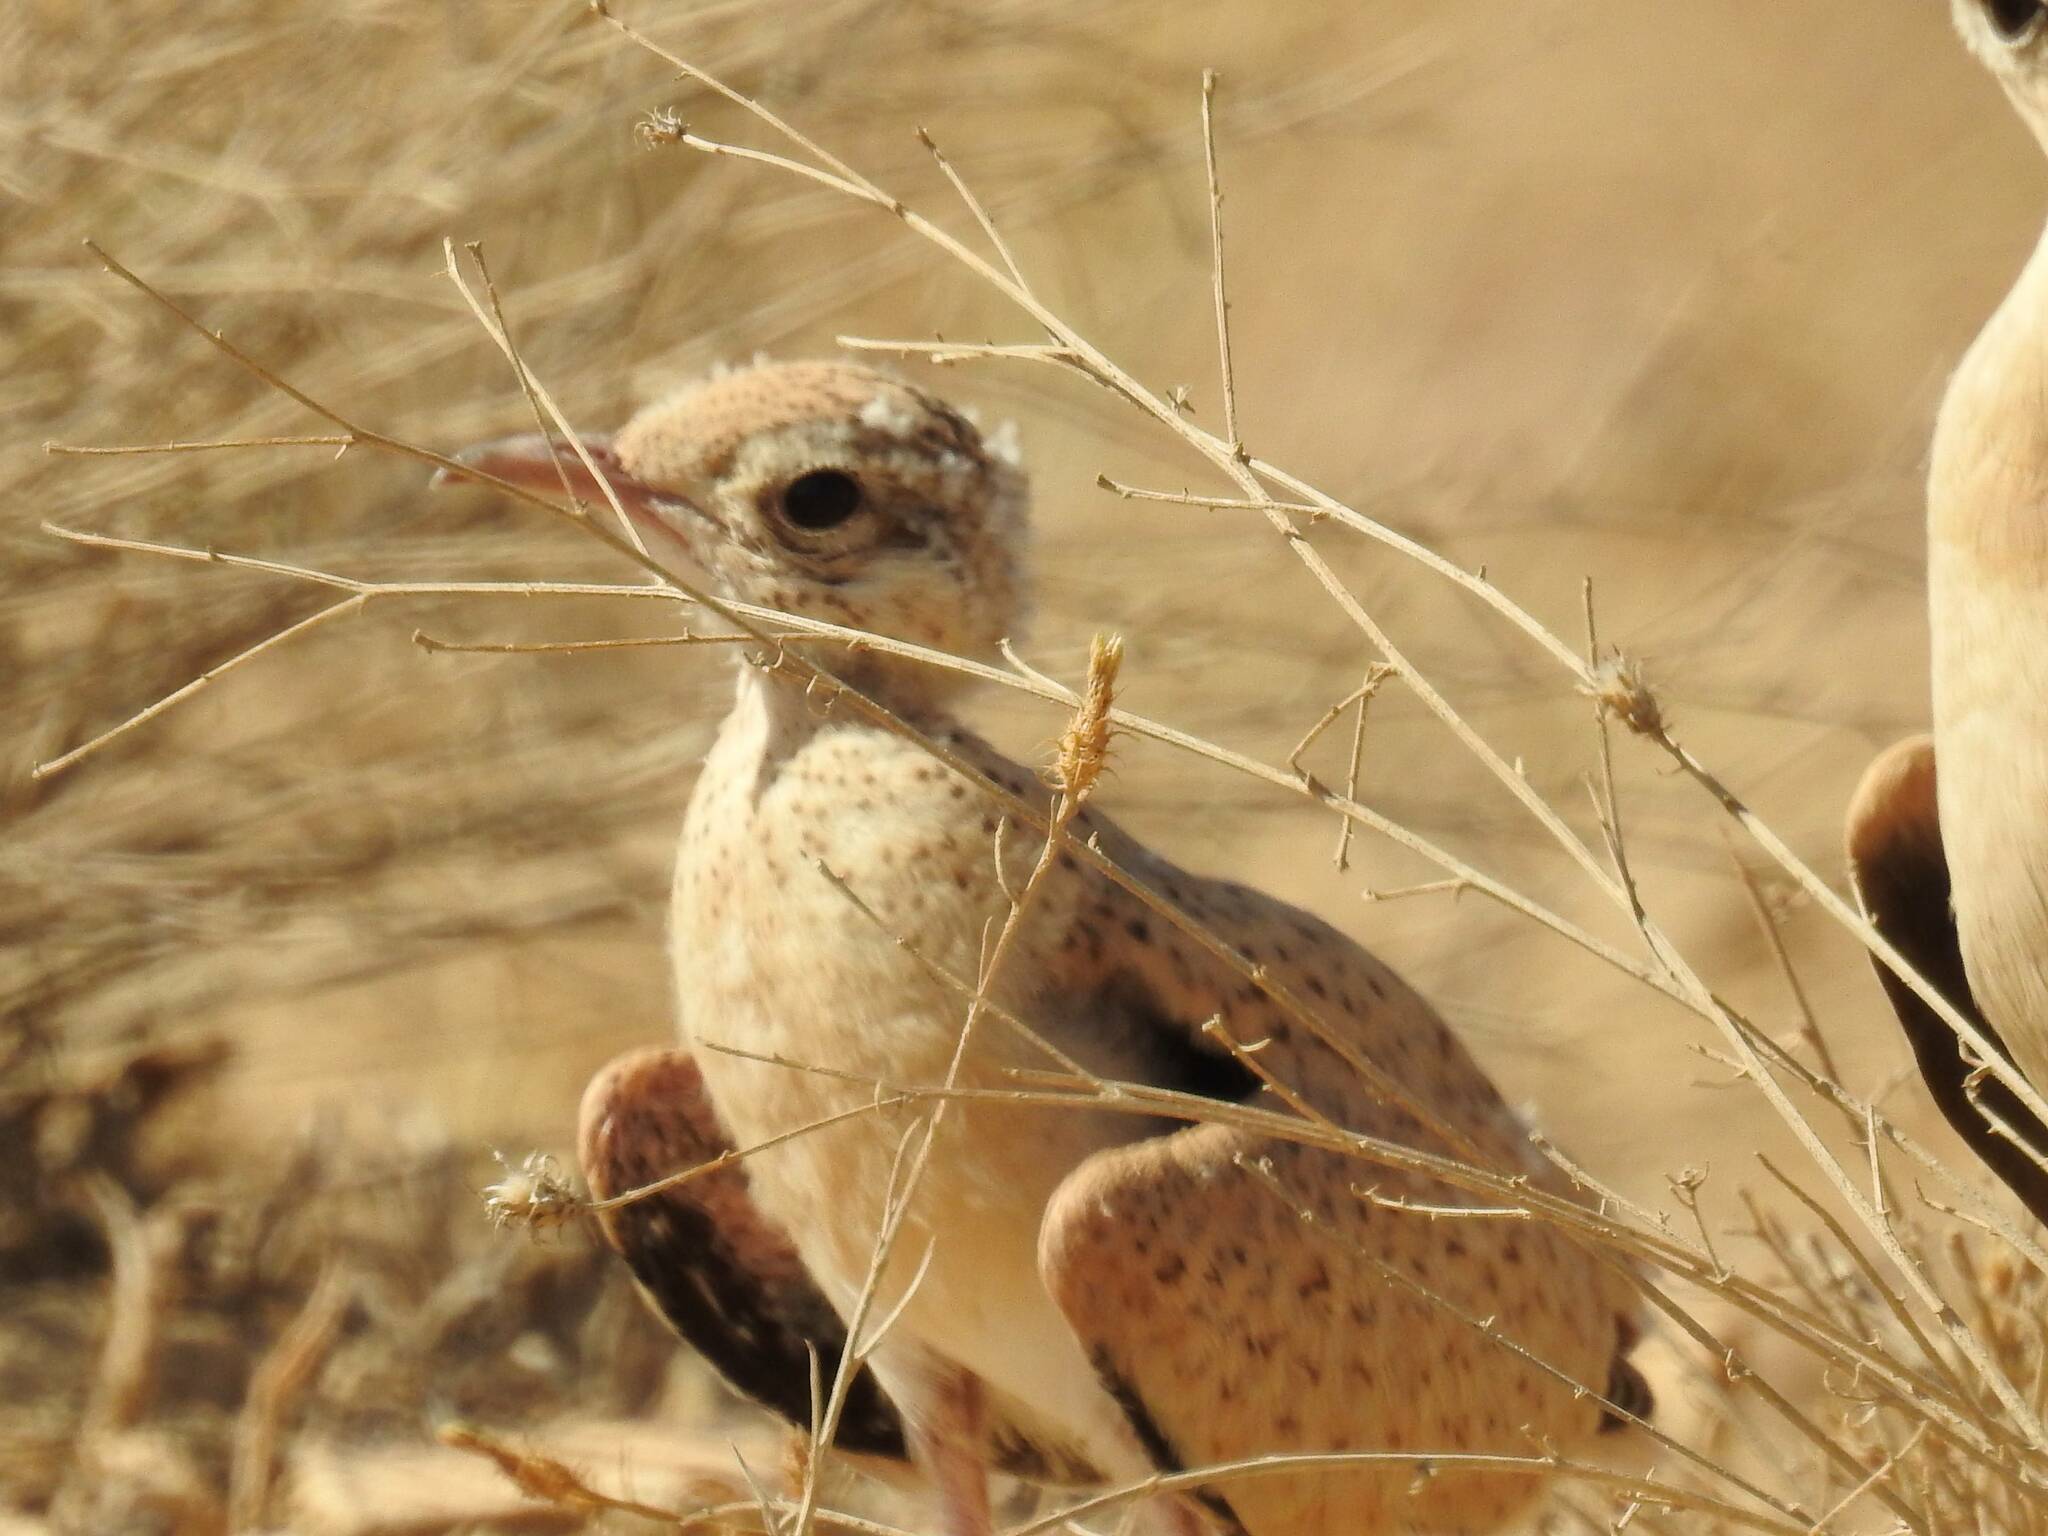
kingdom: Animalia
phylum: Chordata
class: Aves
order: Charadriiformes
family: Glareolidae
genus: Cursorius
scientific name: Cursorius cursor
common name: Cream-colored courser
